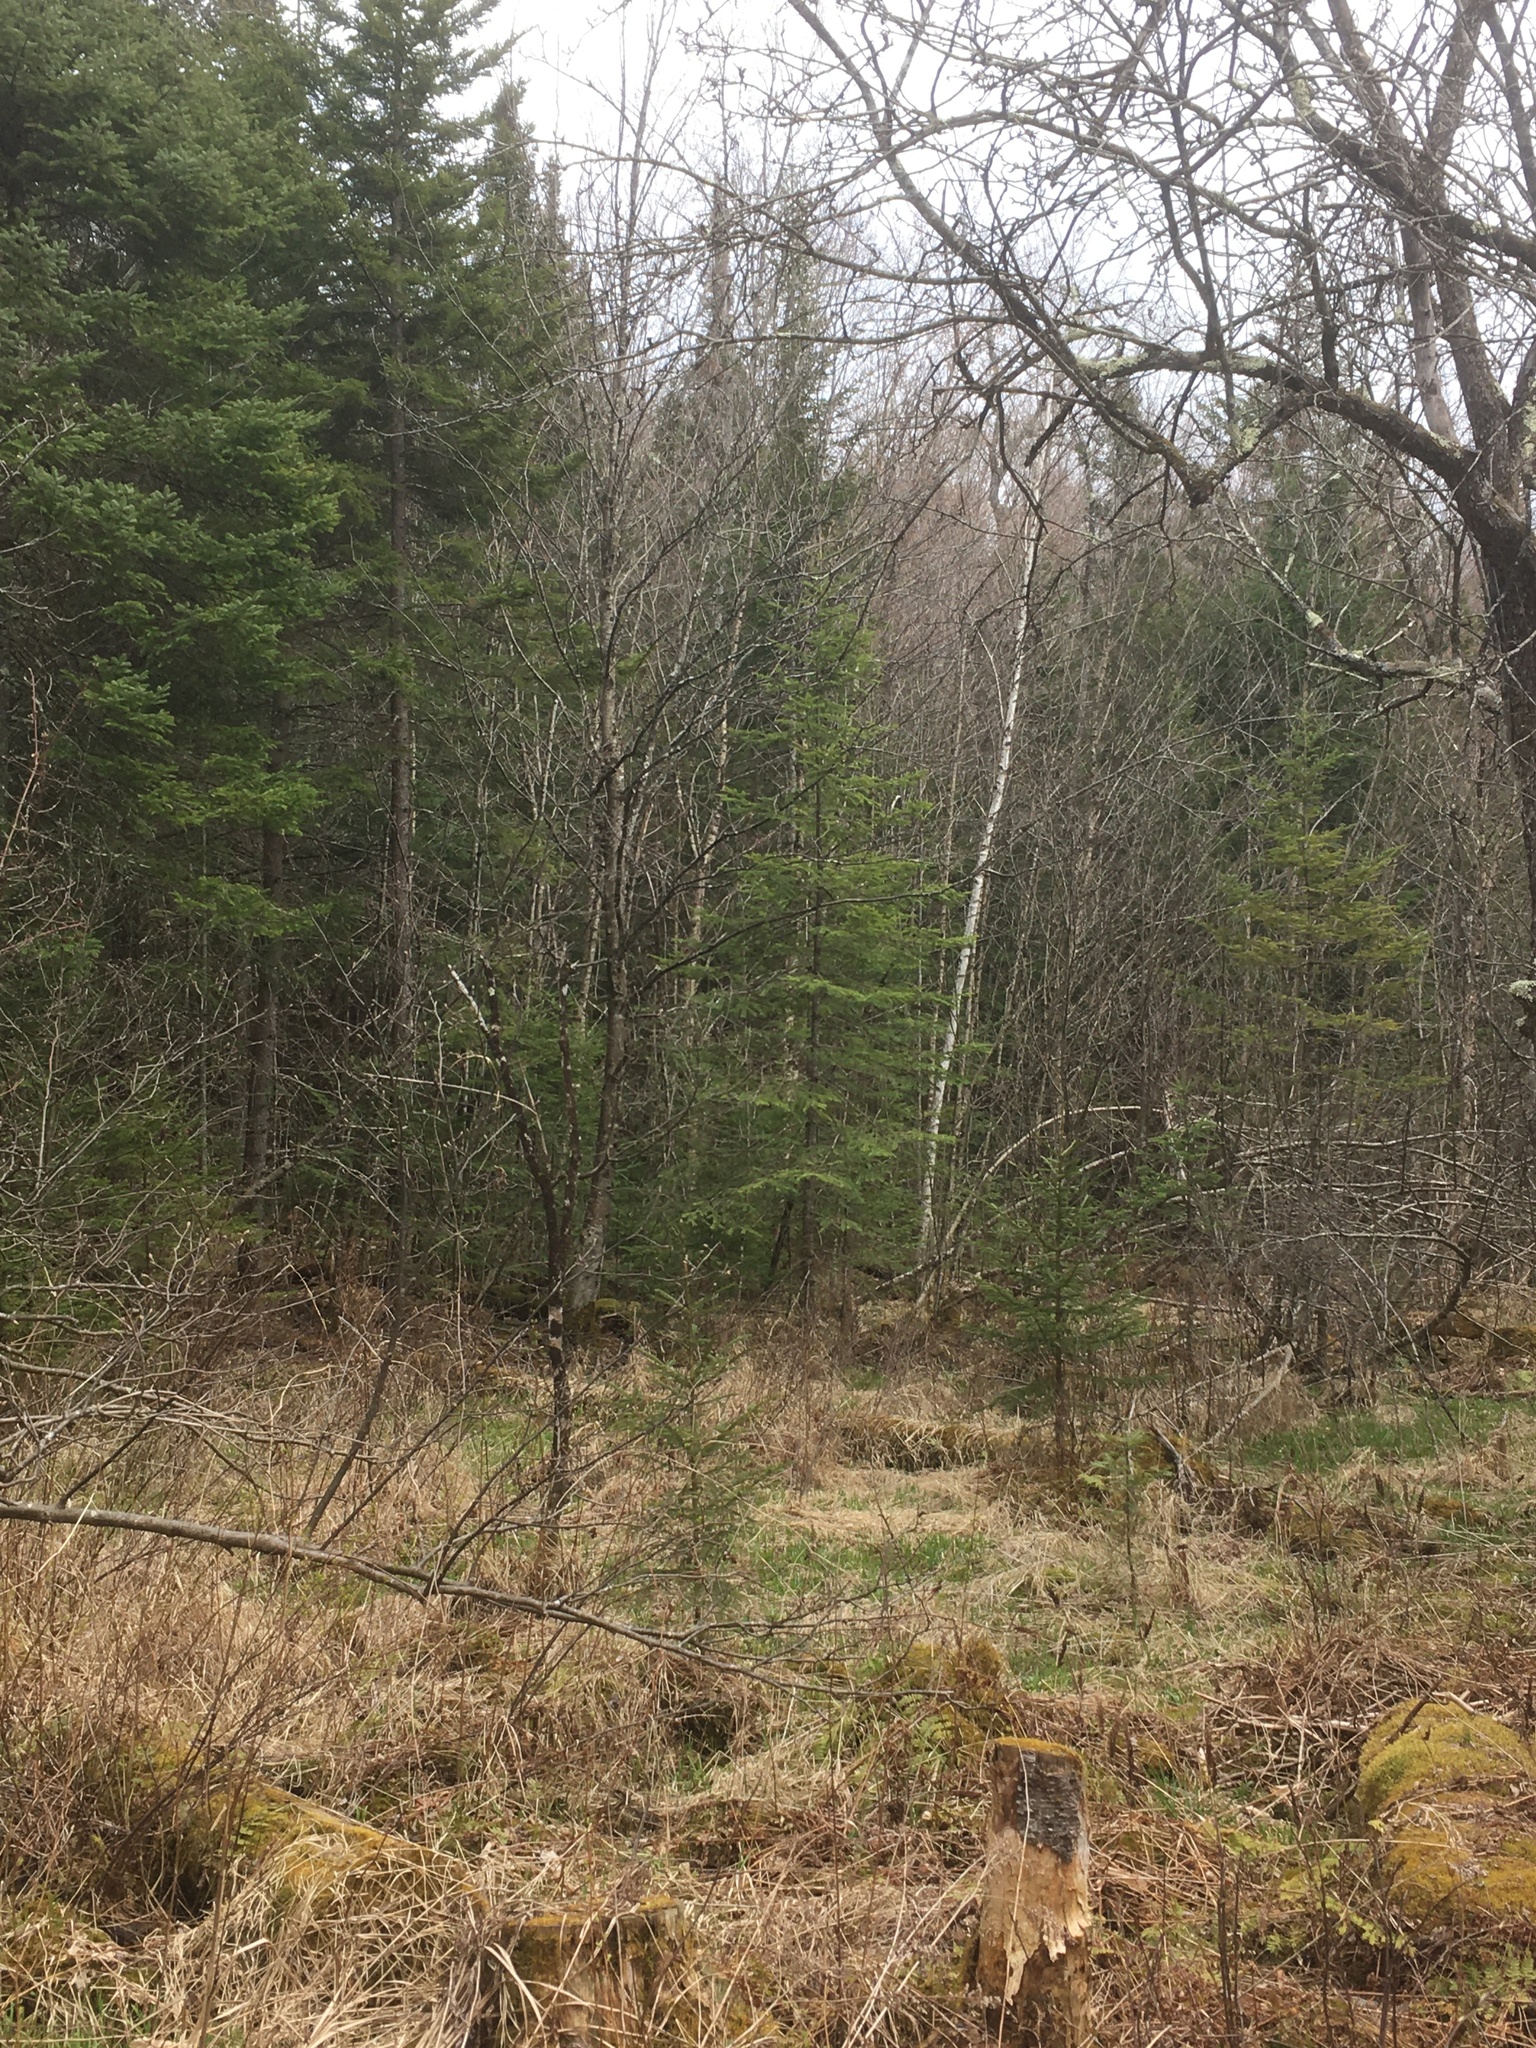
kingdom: Plantae
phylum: Tracheophyta
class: Pinopsida
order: Pinales
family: Pinaceae
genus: Abies
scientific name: Abies balsamea
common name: Balsam fir
